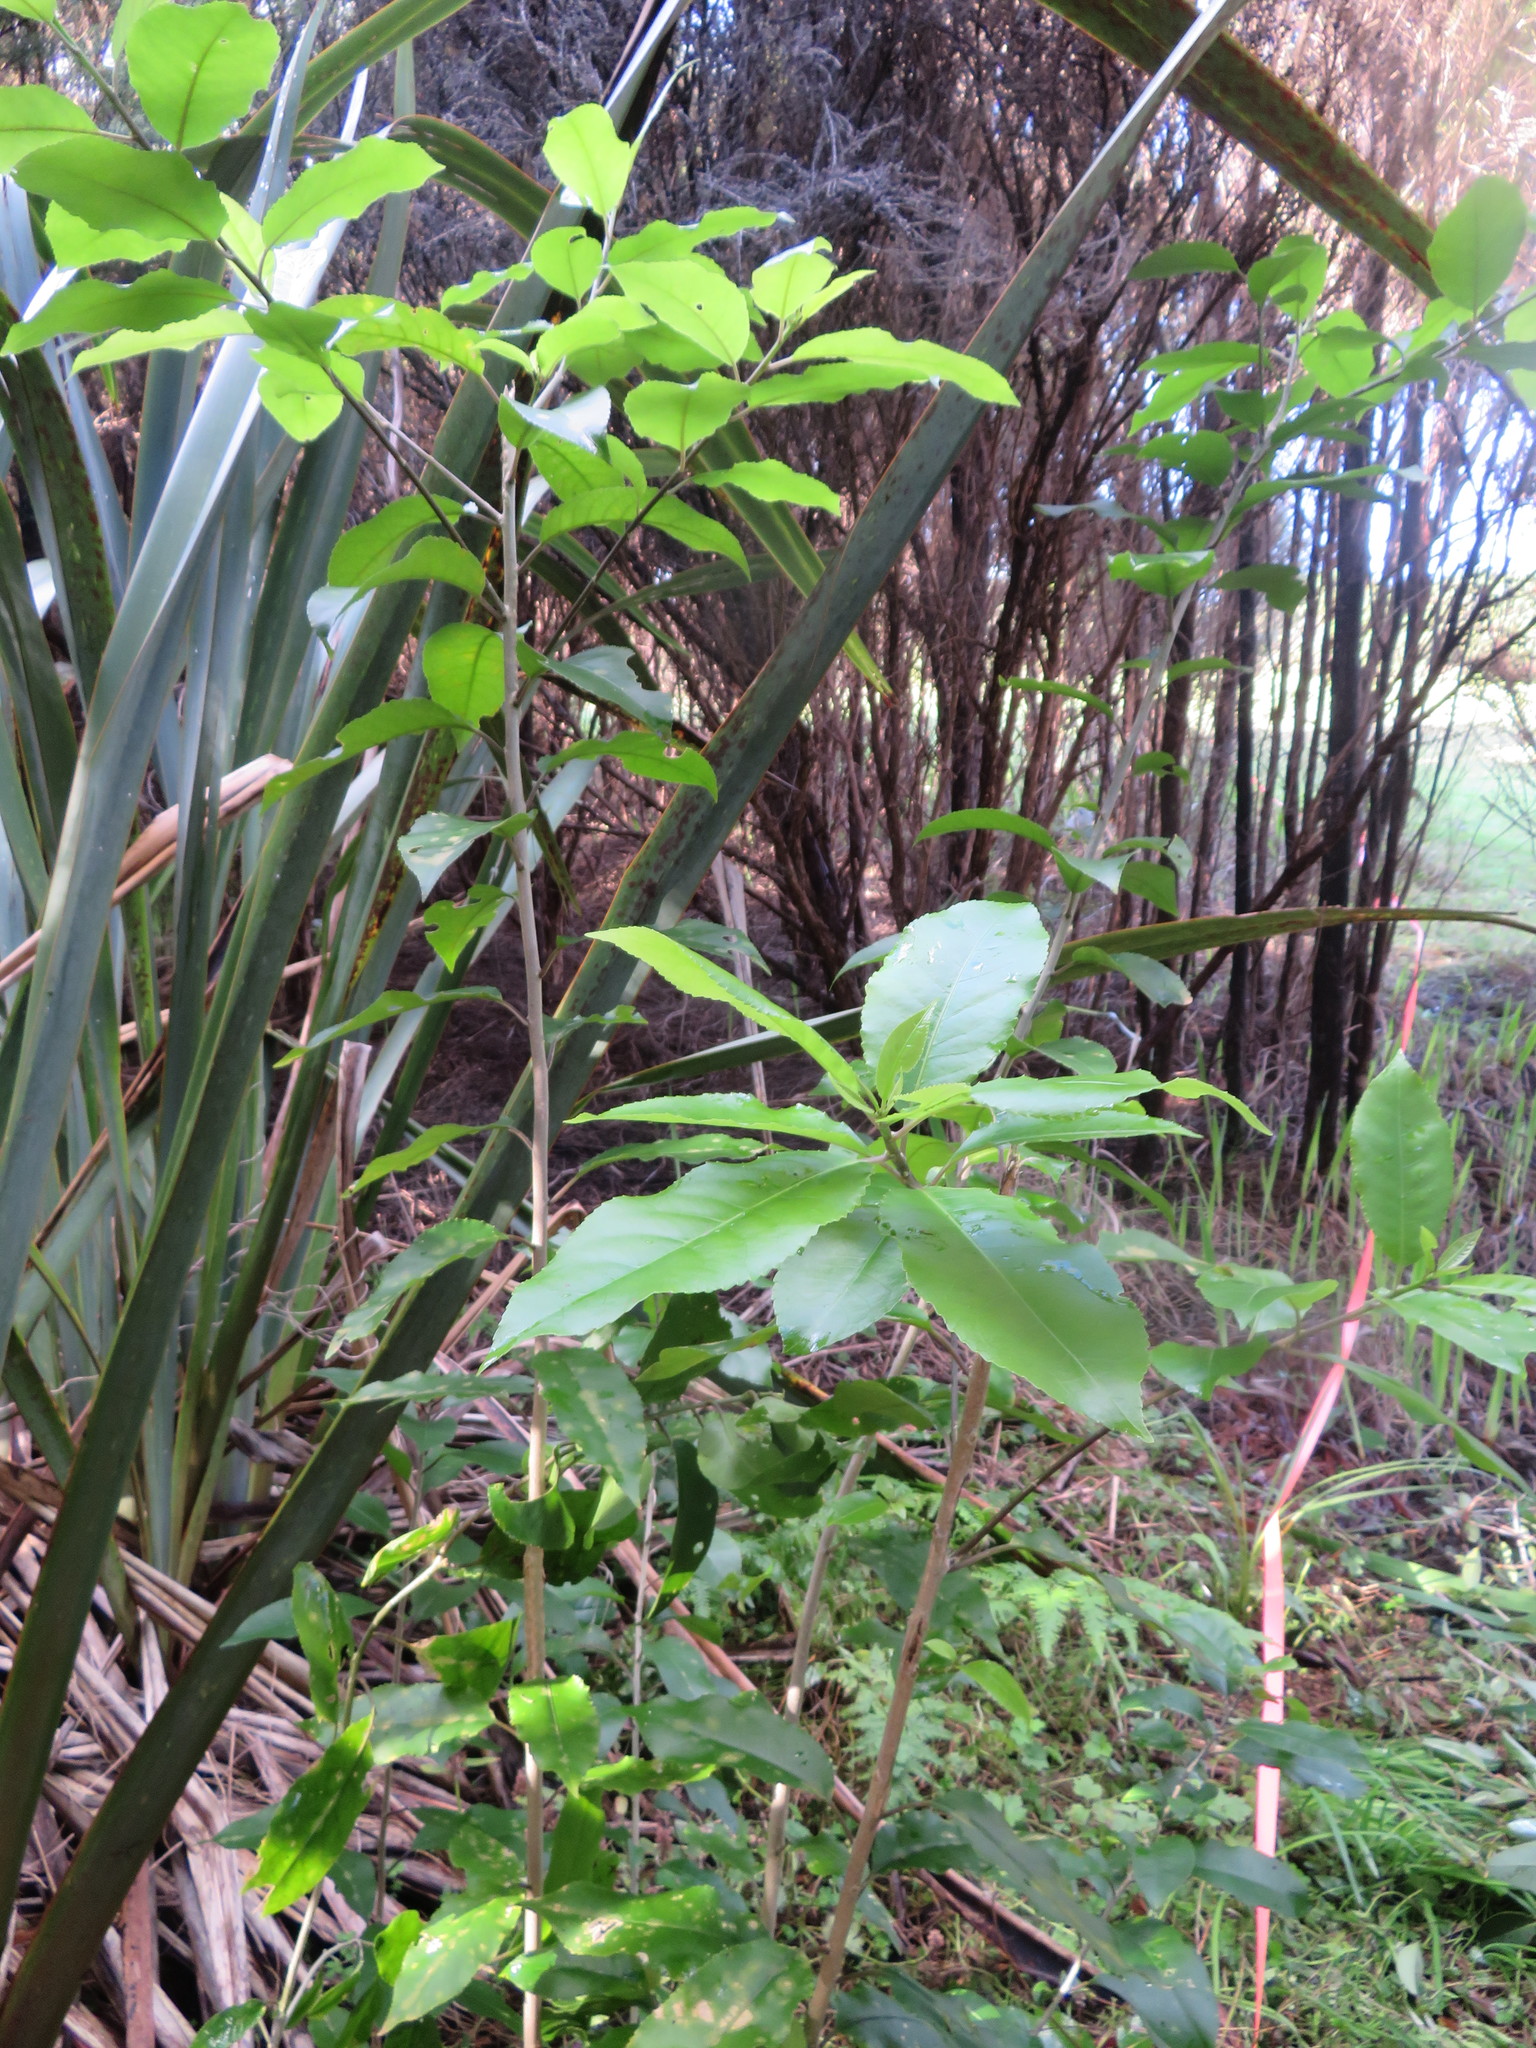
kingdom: Plantae
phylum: Tracheophyta
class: Magnoliopsida
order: Malpighiales
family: Violaceae
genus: Melicytus
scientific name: Melicytus ramiflorus
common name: Mahoe
